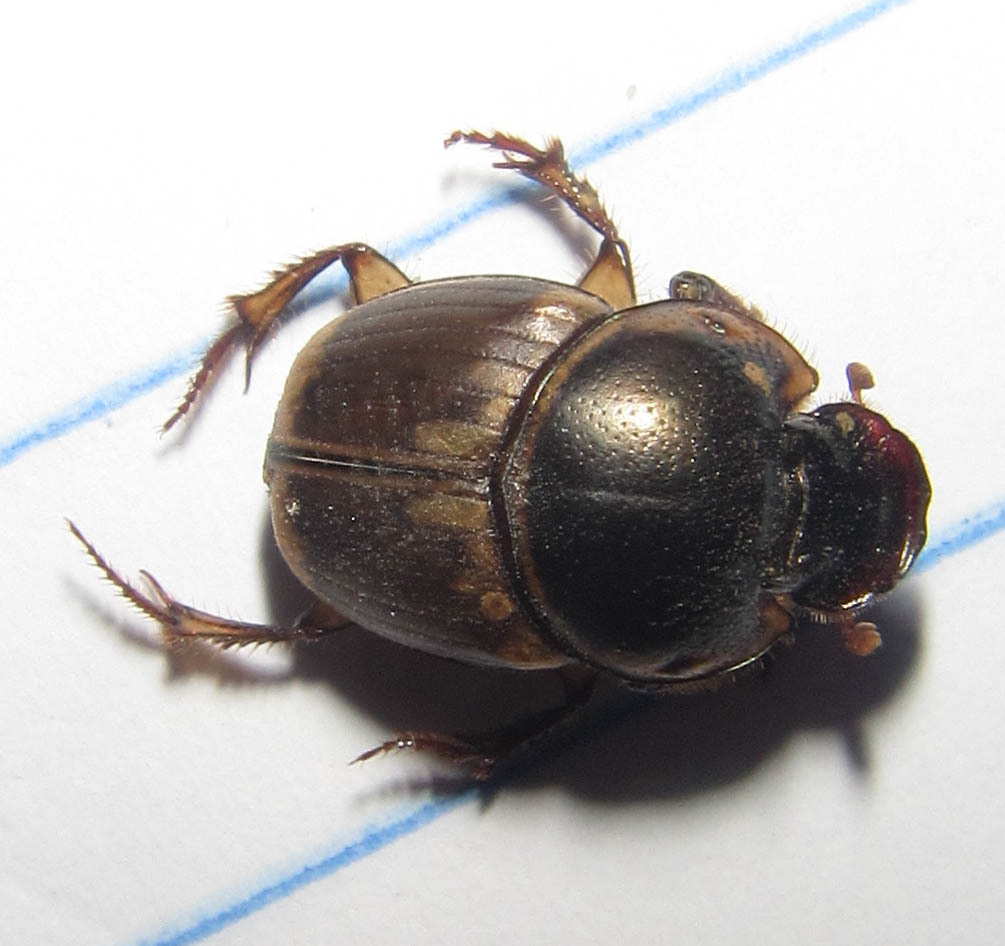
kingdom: Animalia
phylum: Arthropoda
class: Insecta
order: Coleoptera
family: Scarabaeidae
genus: Digitonthophagus
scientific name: Digitonthophagus gazella
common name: Brown dung beetle
